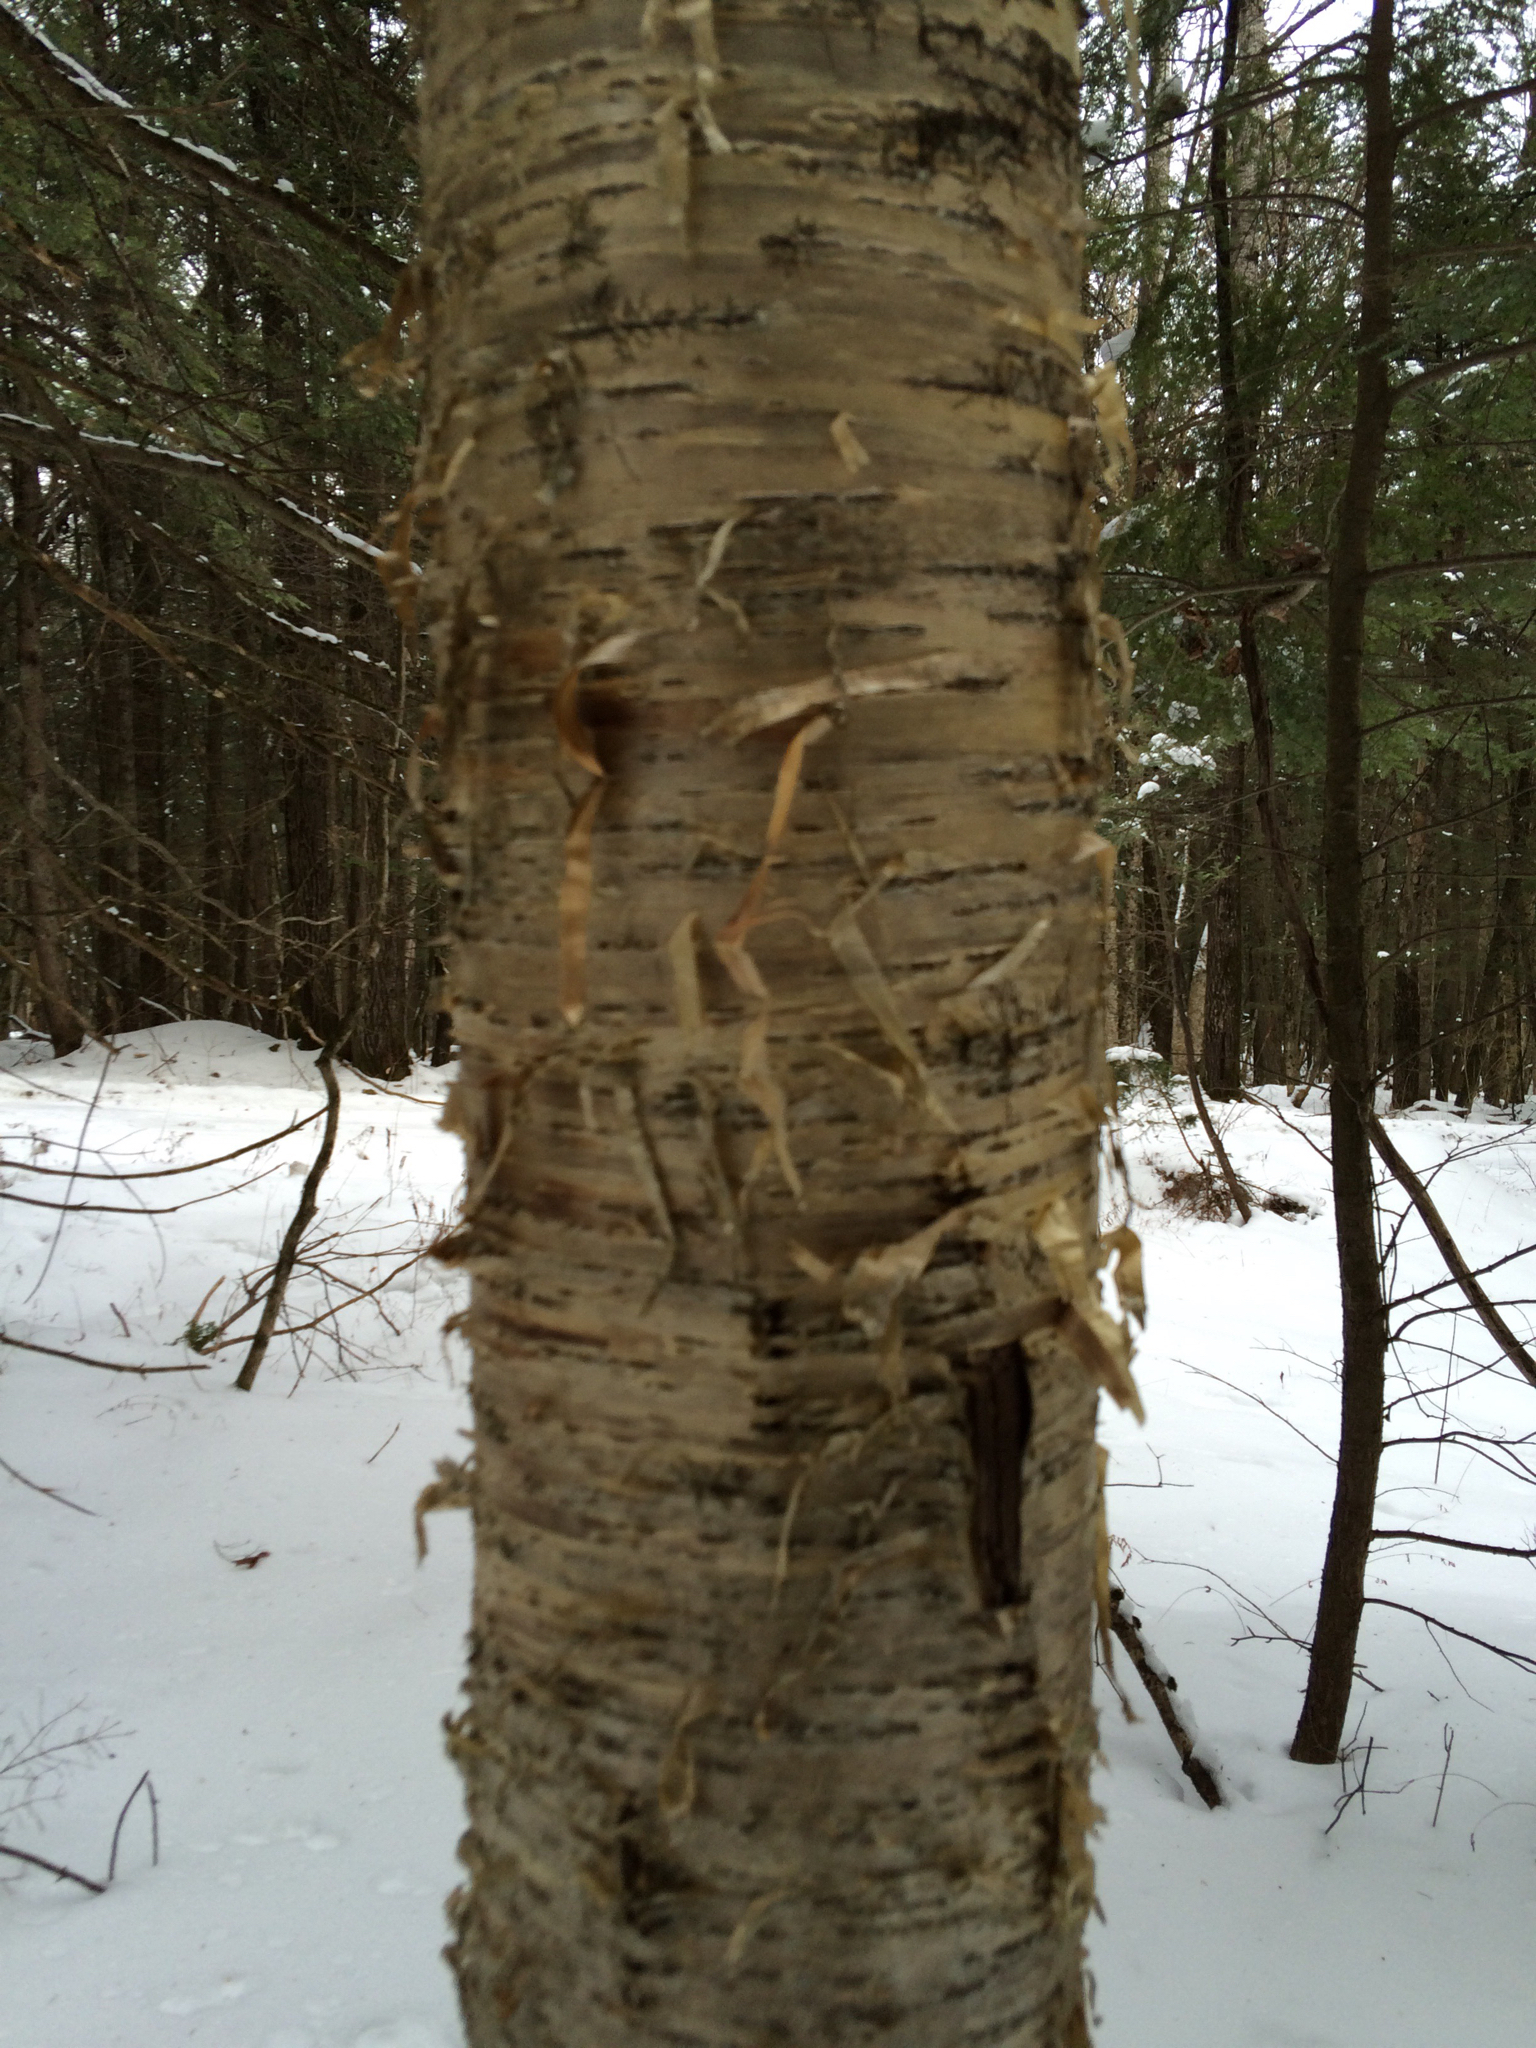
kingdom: Plantae
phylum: Tracheophyta
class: Magnoliopsida
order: Fagales
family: Betulaceae
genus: Betula
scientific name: Betula alleghaniensis
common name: Yellow birch
